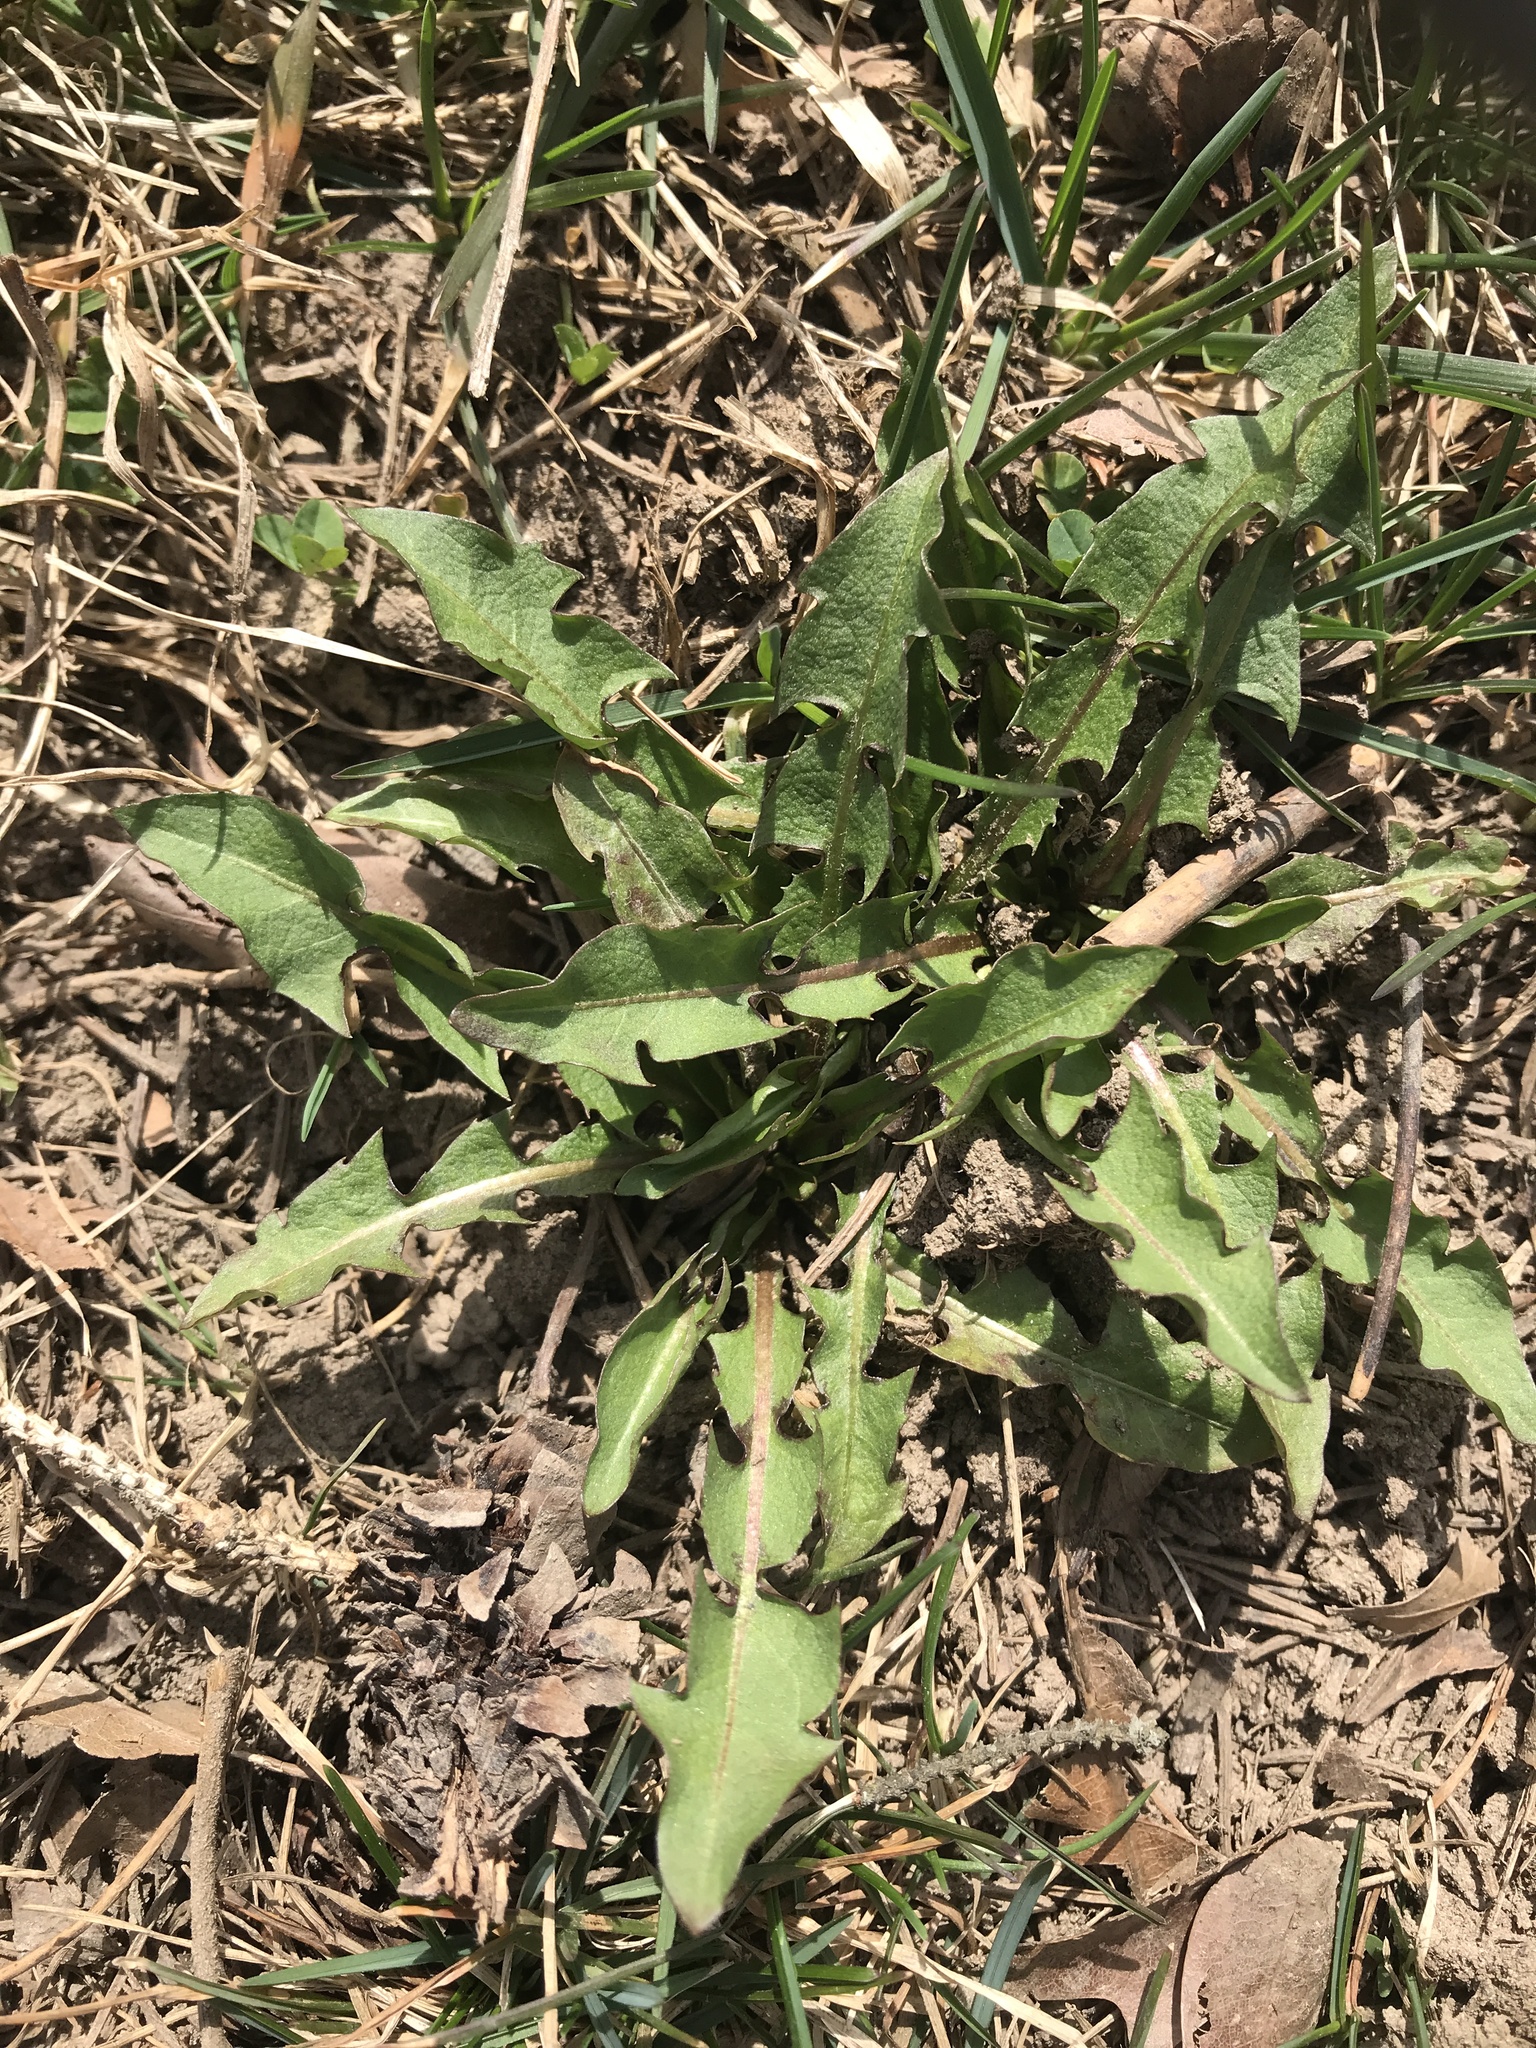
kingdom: Plantae
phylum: Tracheophyta
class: Magnoliopsida
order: Asterales
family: Asteraceae
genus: Taraxacum
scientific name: Taraxacum officinale
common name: Common dandelion
